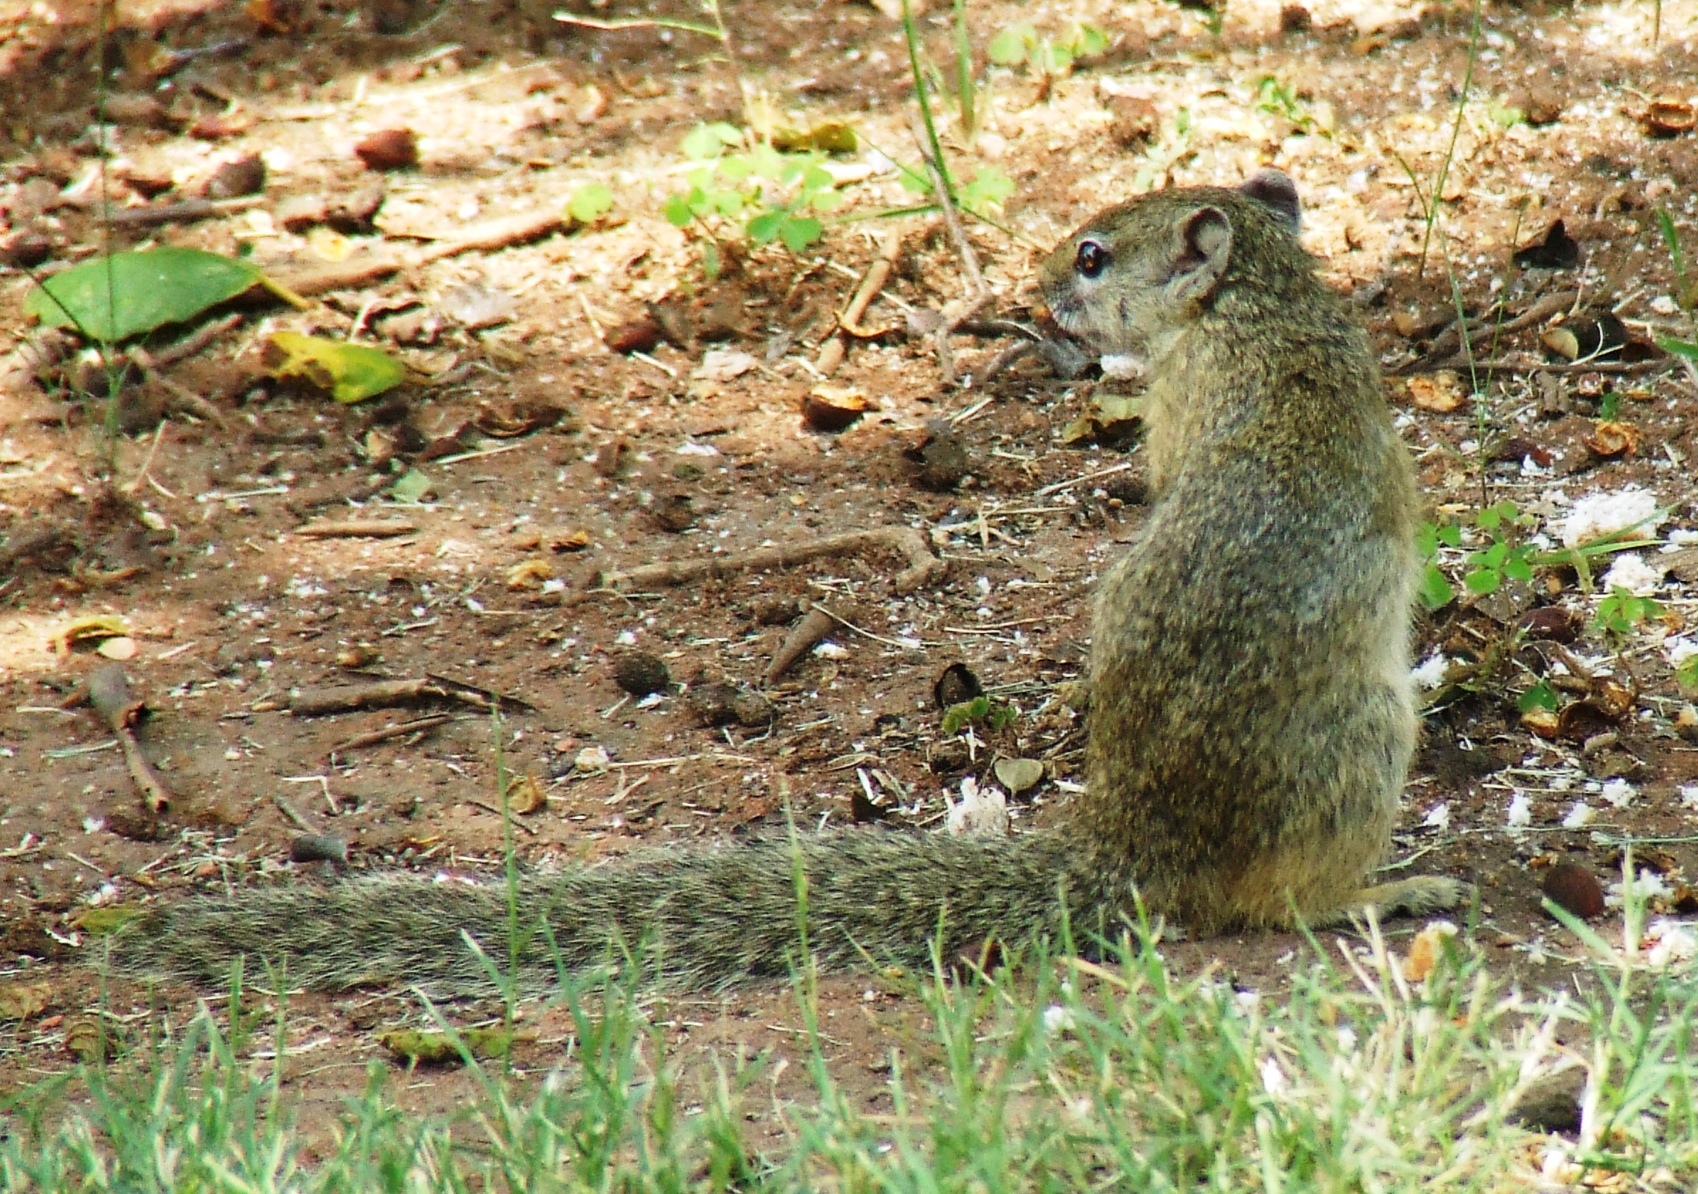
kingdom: Animalia
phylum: Chordata
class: Mammalia
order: Rodentia
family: Sciuridae
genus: Paraxerus
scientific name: Paraxerus cepapi
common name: Smith's bush squirrel
